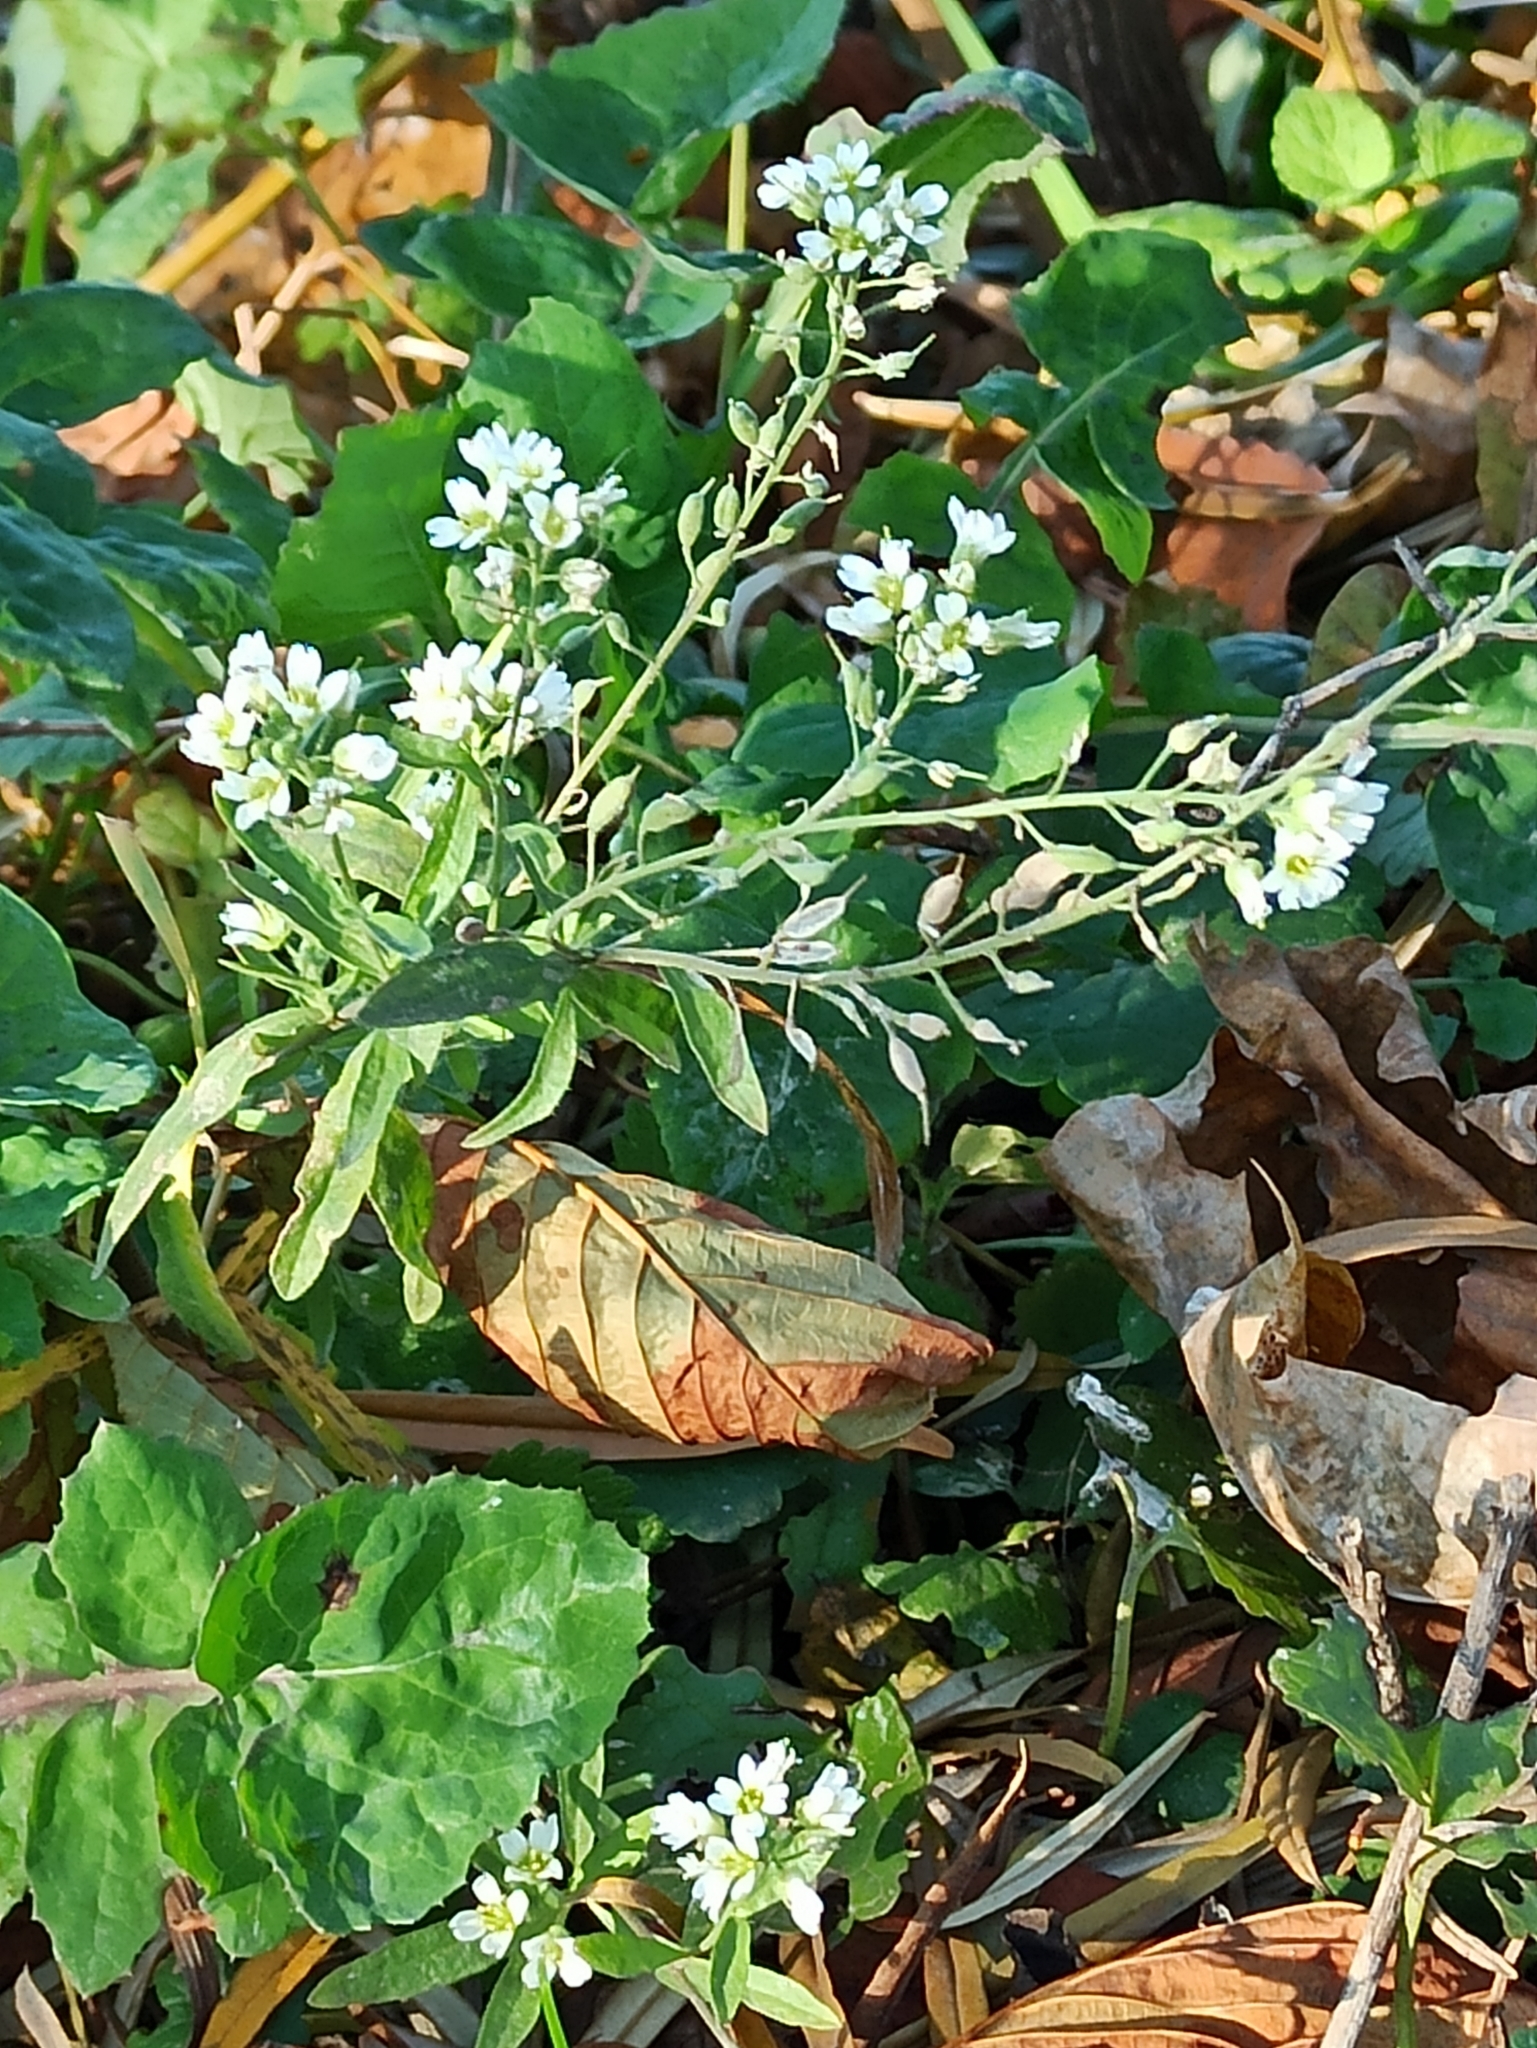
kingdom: Plantae
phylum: Tracheophyta
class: Magnoliopsida
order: Brassicales
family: Brassicaceae
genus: Berteroa
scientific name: Berteroa incana
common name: Hoary alison
